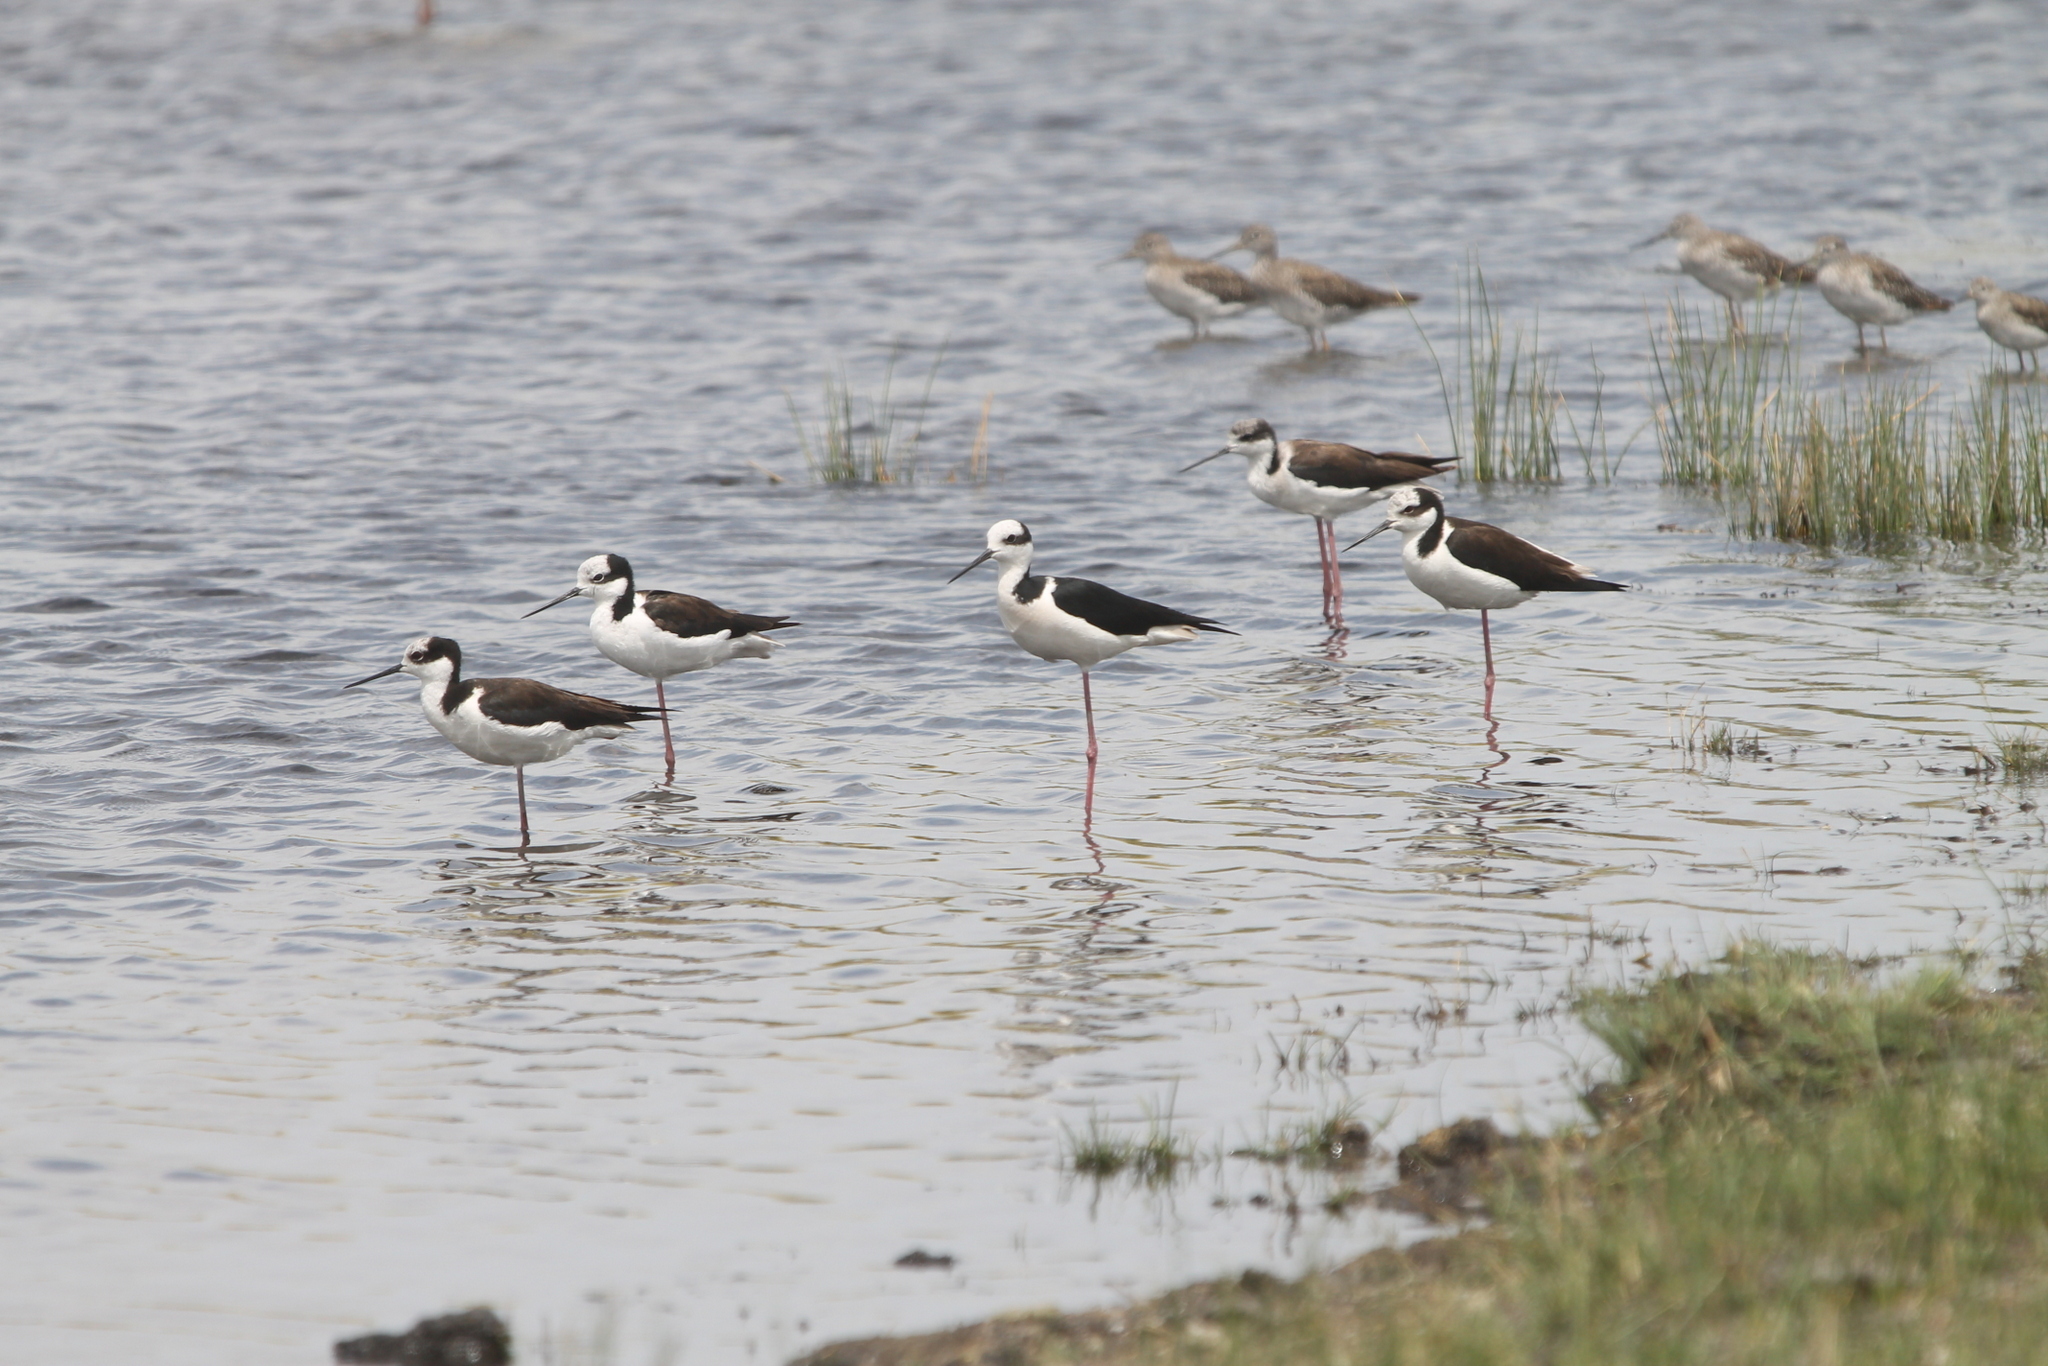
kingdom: Animalia
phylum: Chordata
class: Aves
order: Charadriiformes
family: Recurvirostridae
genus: Himantopus
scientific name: Himantopus mexicanus
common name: Black-necked stilt
